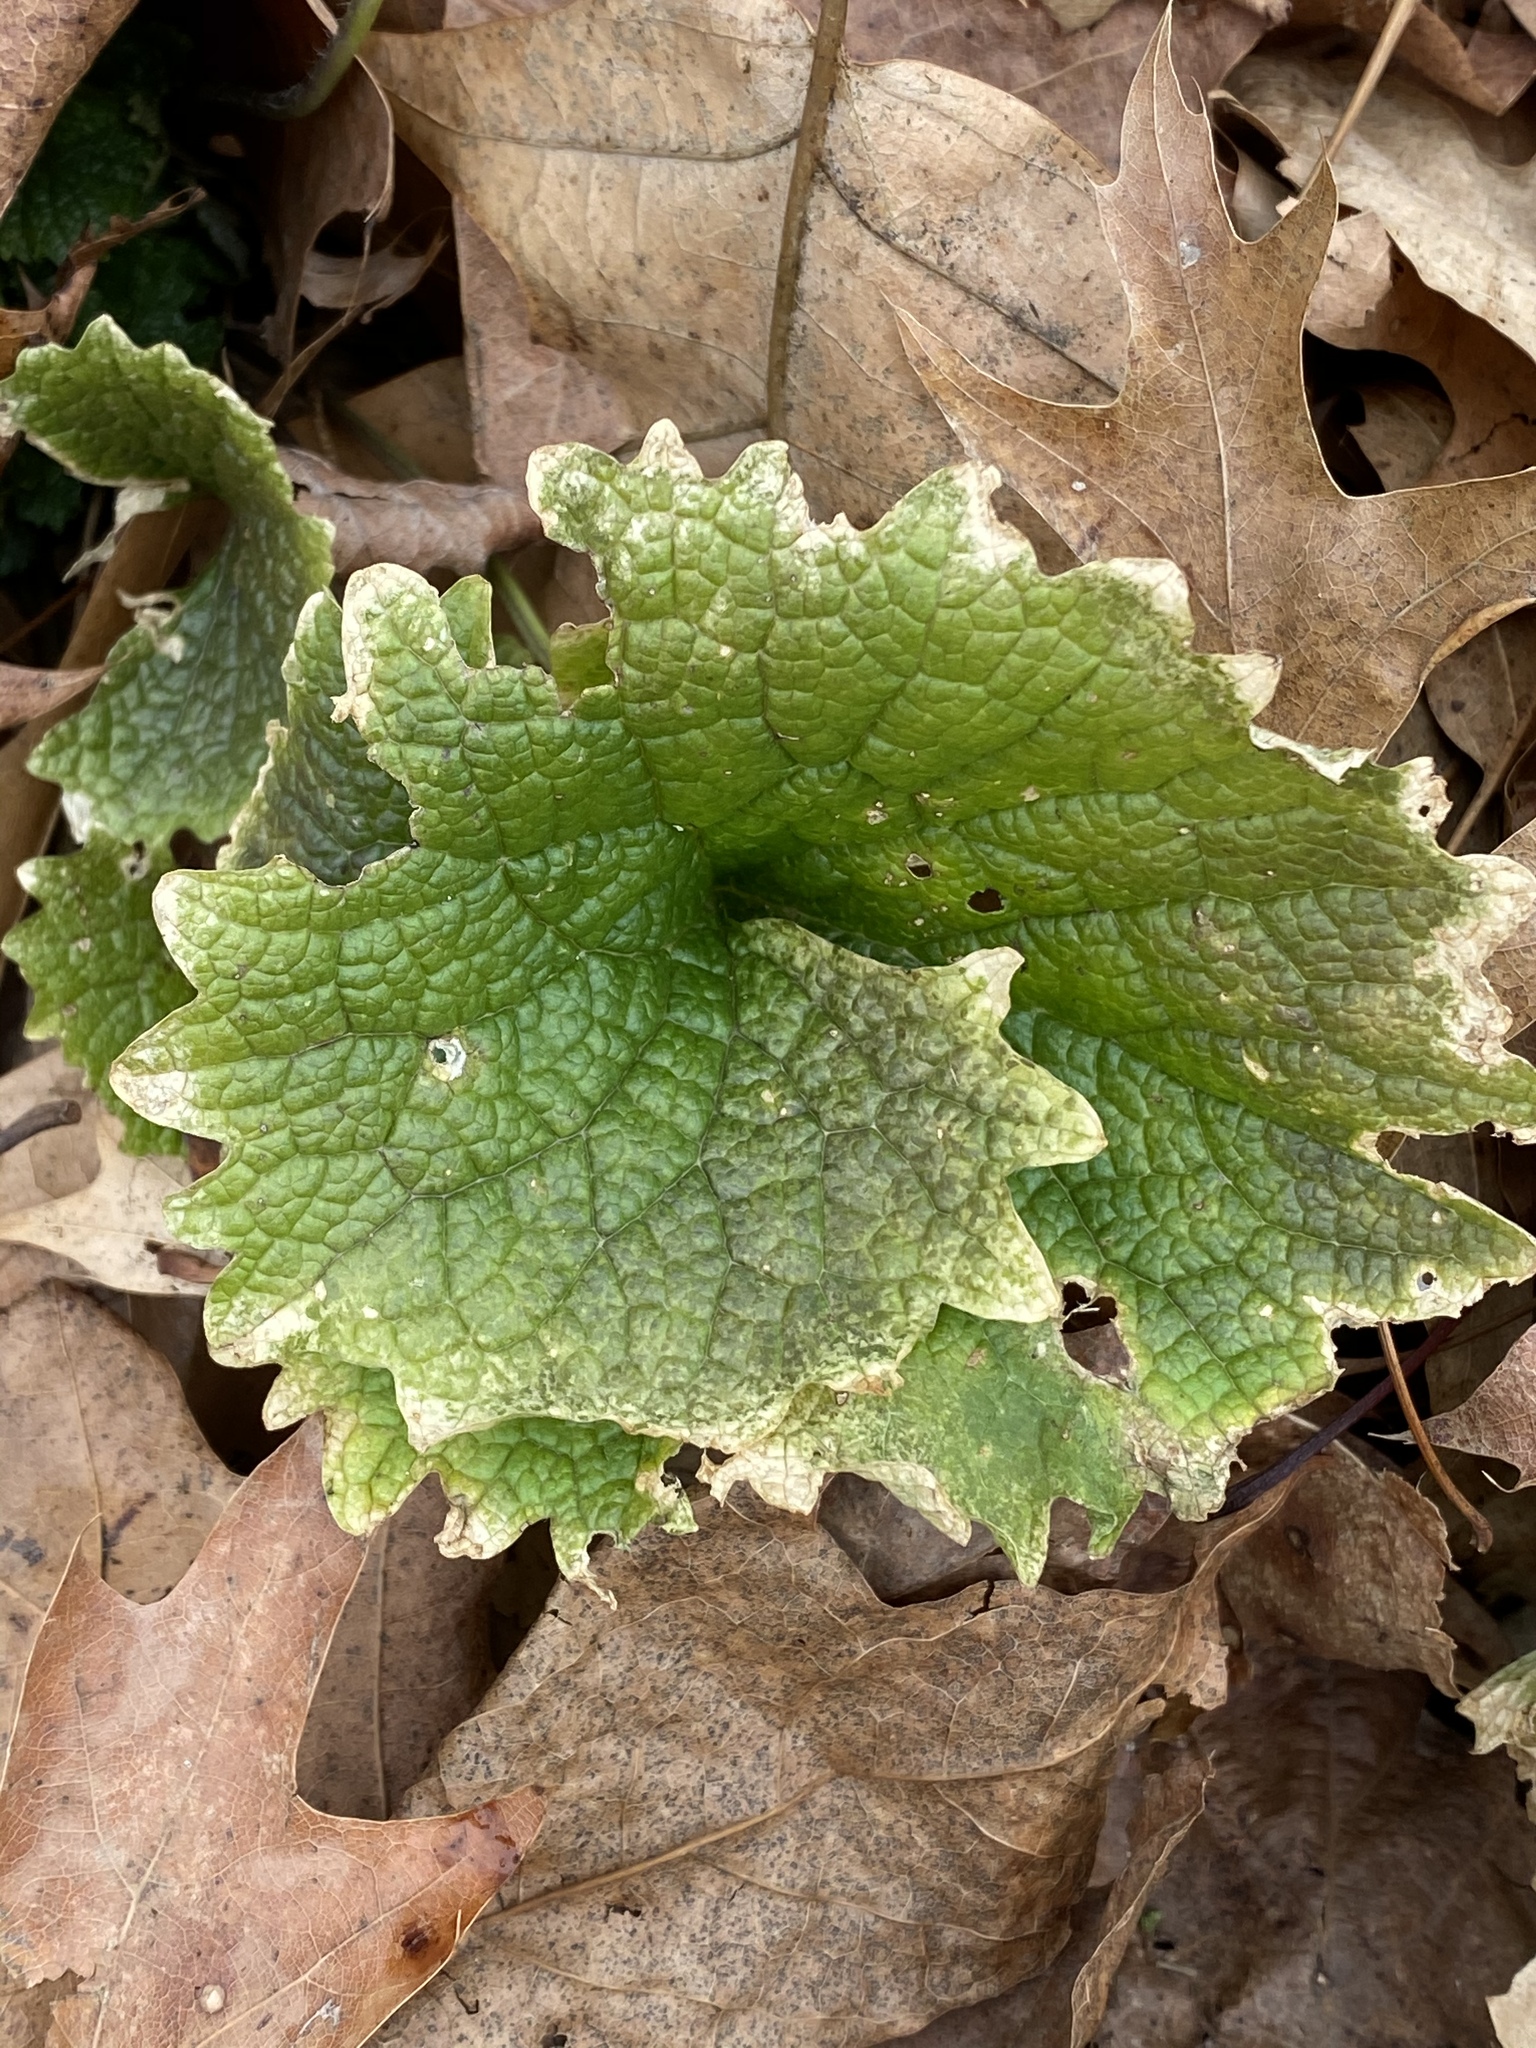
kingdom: Plantae
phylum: Tracheophyta
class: Magnoliopsida
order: Brassicales
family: Brassicaceae
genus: Alliaria
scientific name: Alliaria petiolata
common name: Garlic mustard
